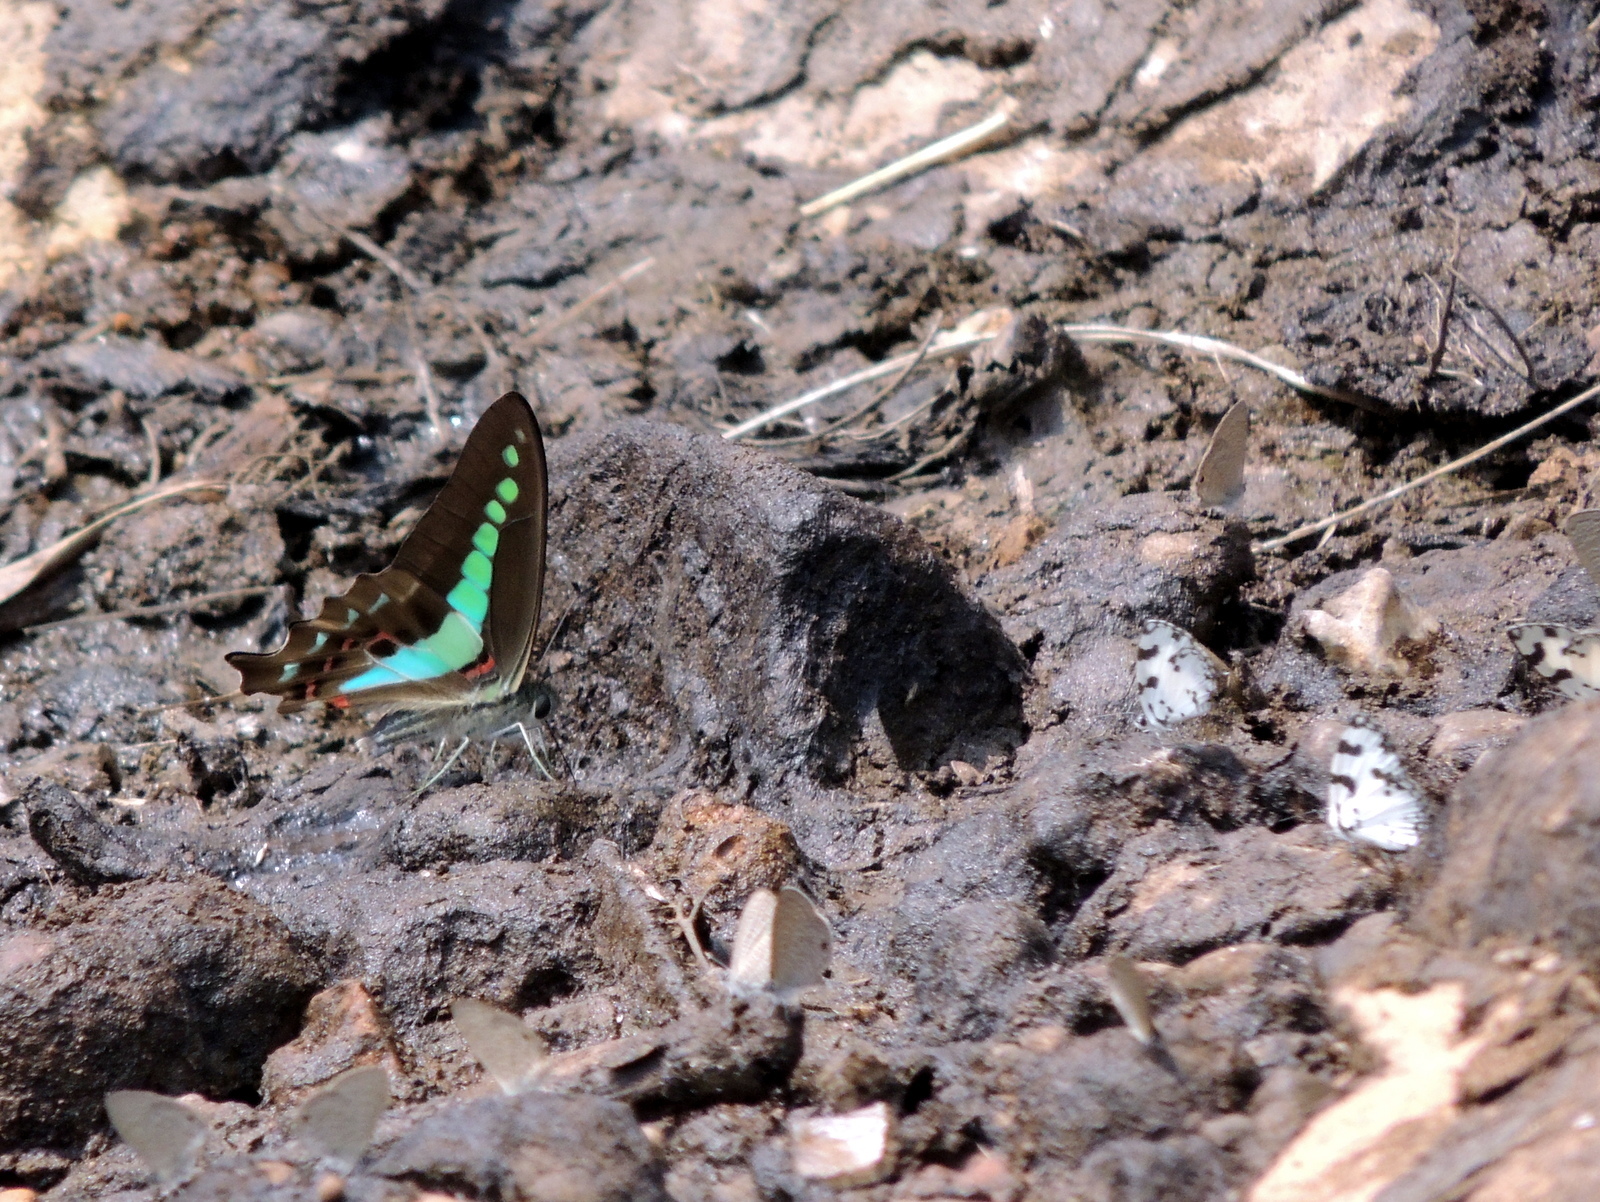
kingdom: Animalia
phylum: Arthropoda
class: Insecta
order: Lepidoptera
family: Papilionidae
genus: Graphium
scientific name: Graphium
